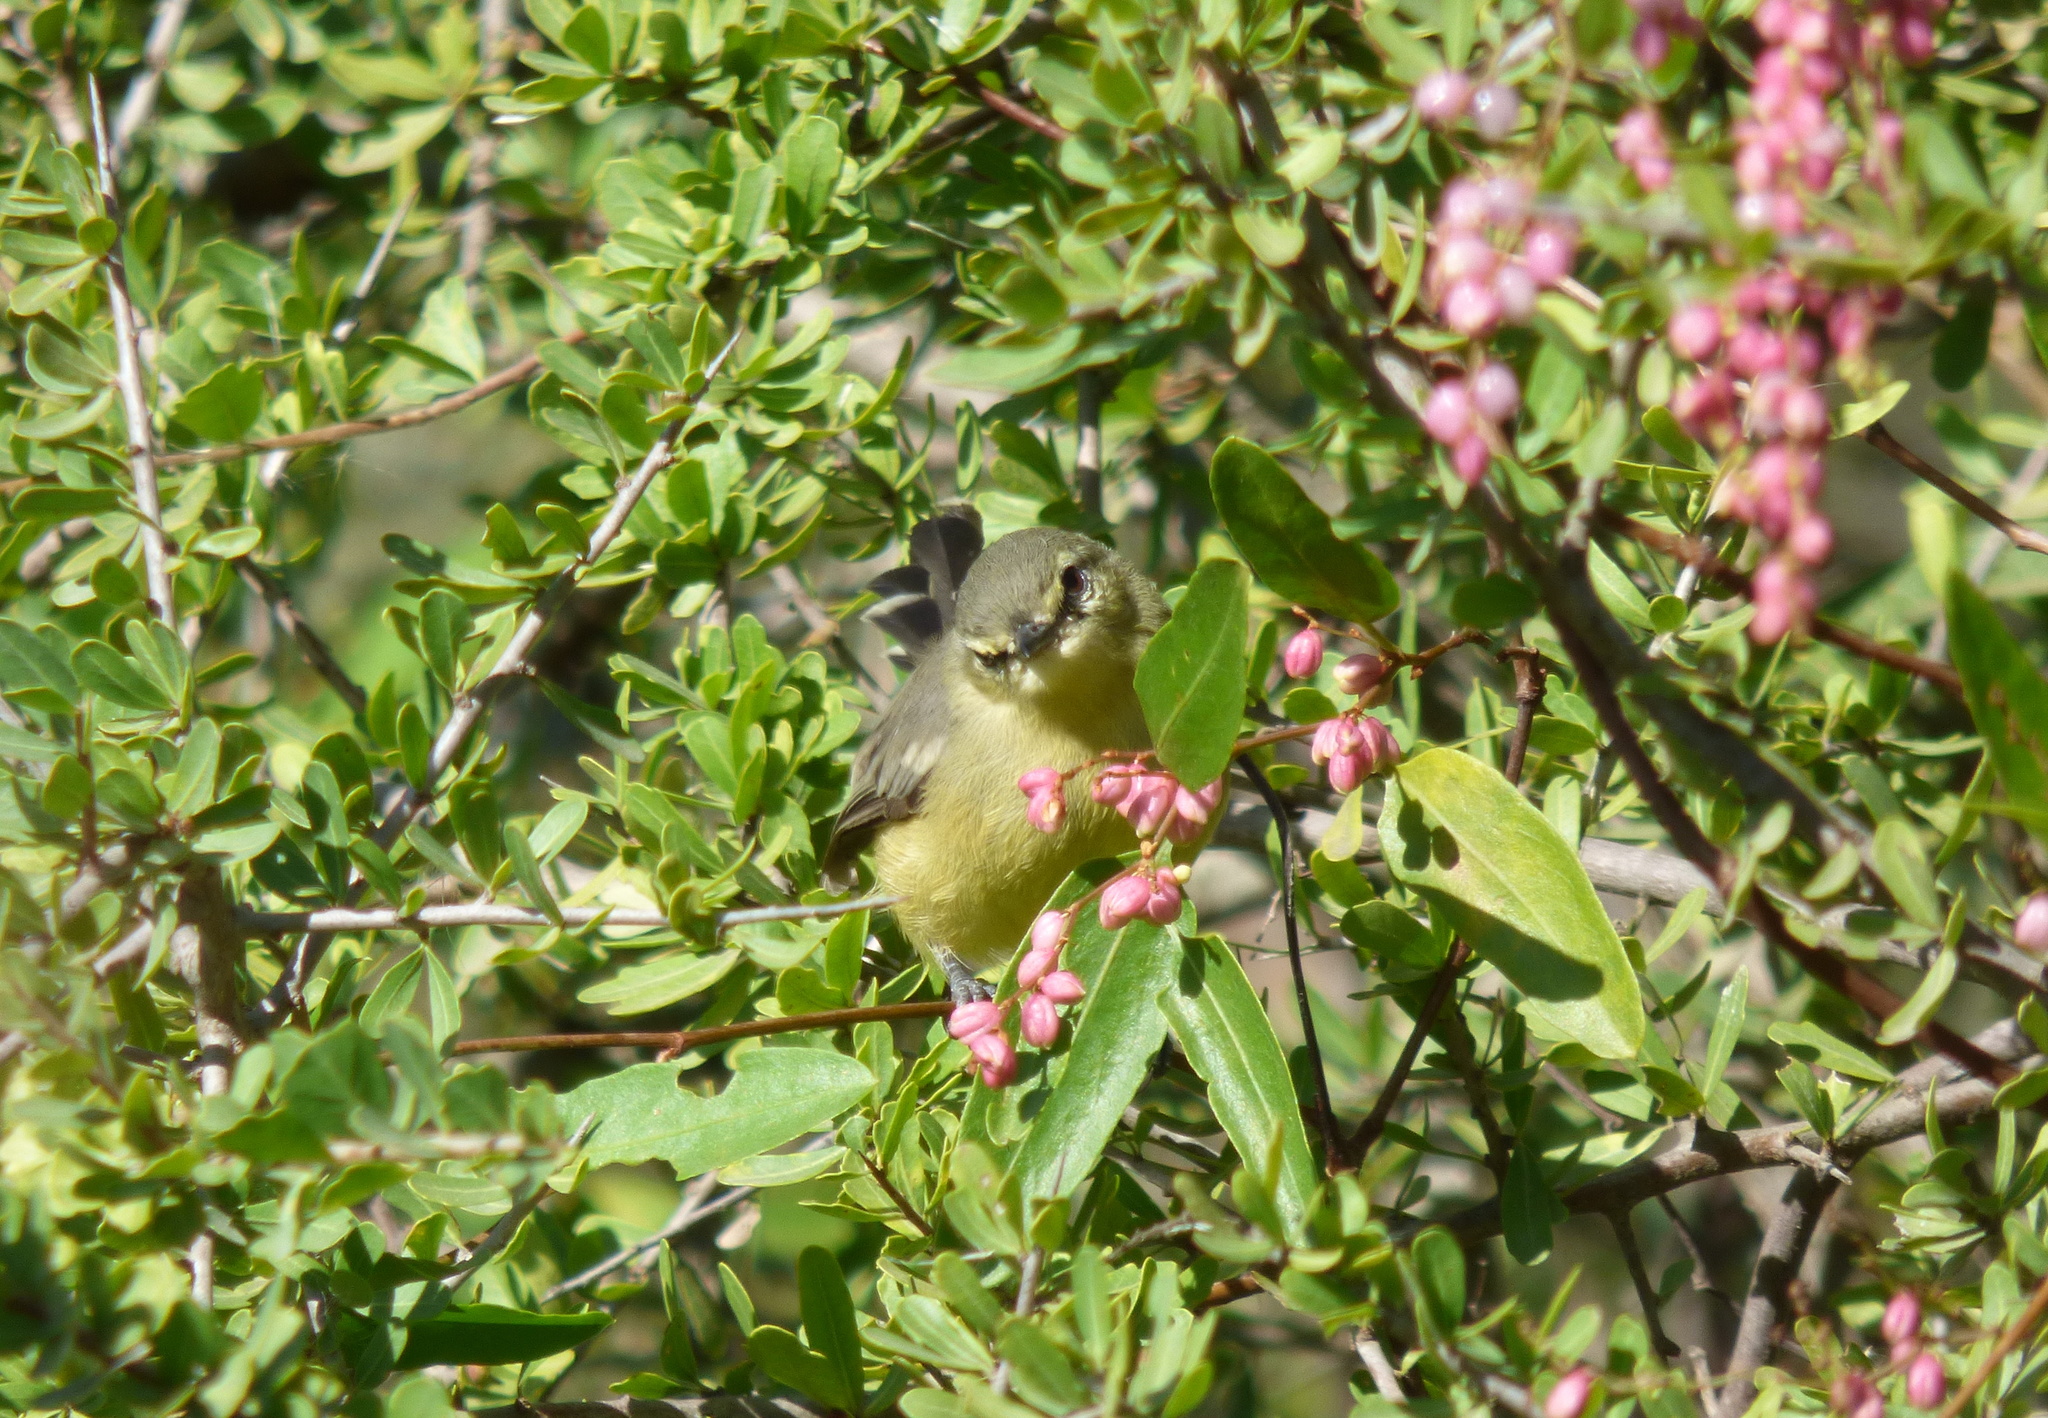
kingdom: Animalia
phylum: Chordata
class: Aves
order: Passeriformes
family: Tyrannidae
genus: Stigmatura
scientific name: Stigmatura budytoides
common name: Greater wagtail-tyrant
